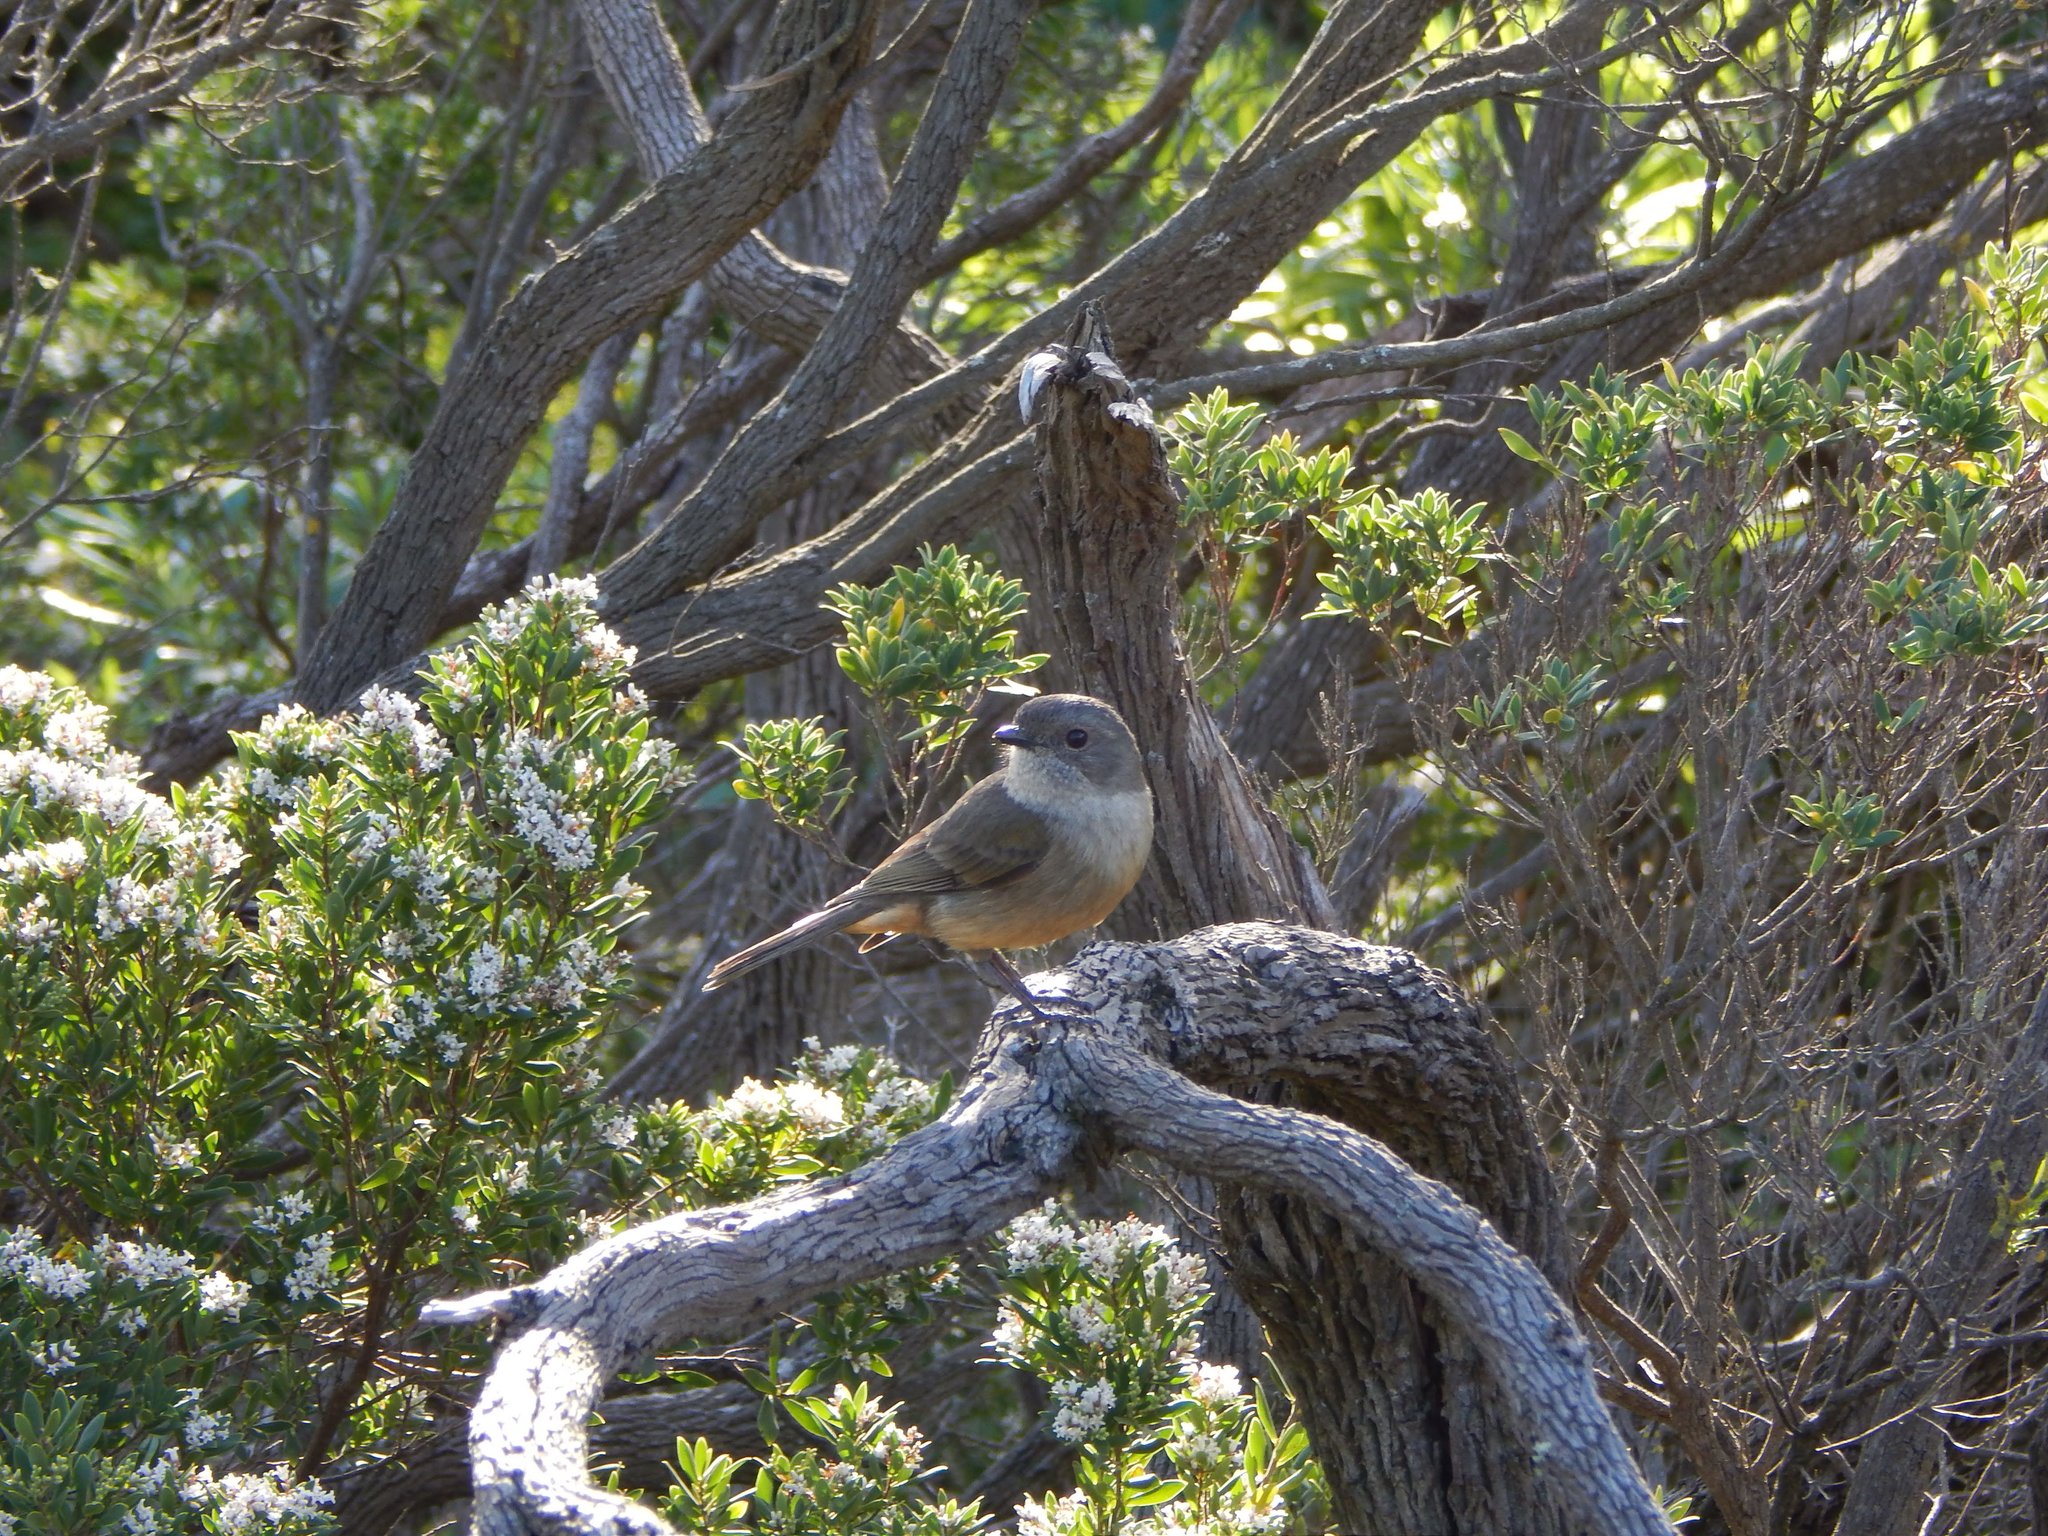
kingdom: Animalia
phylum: Chordata
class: Aves
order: Passeriformes
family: Pachycephalidae
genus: Pachycephala
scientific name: Pachycephala fuliginosa
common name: Western whistler
